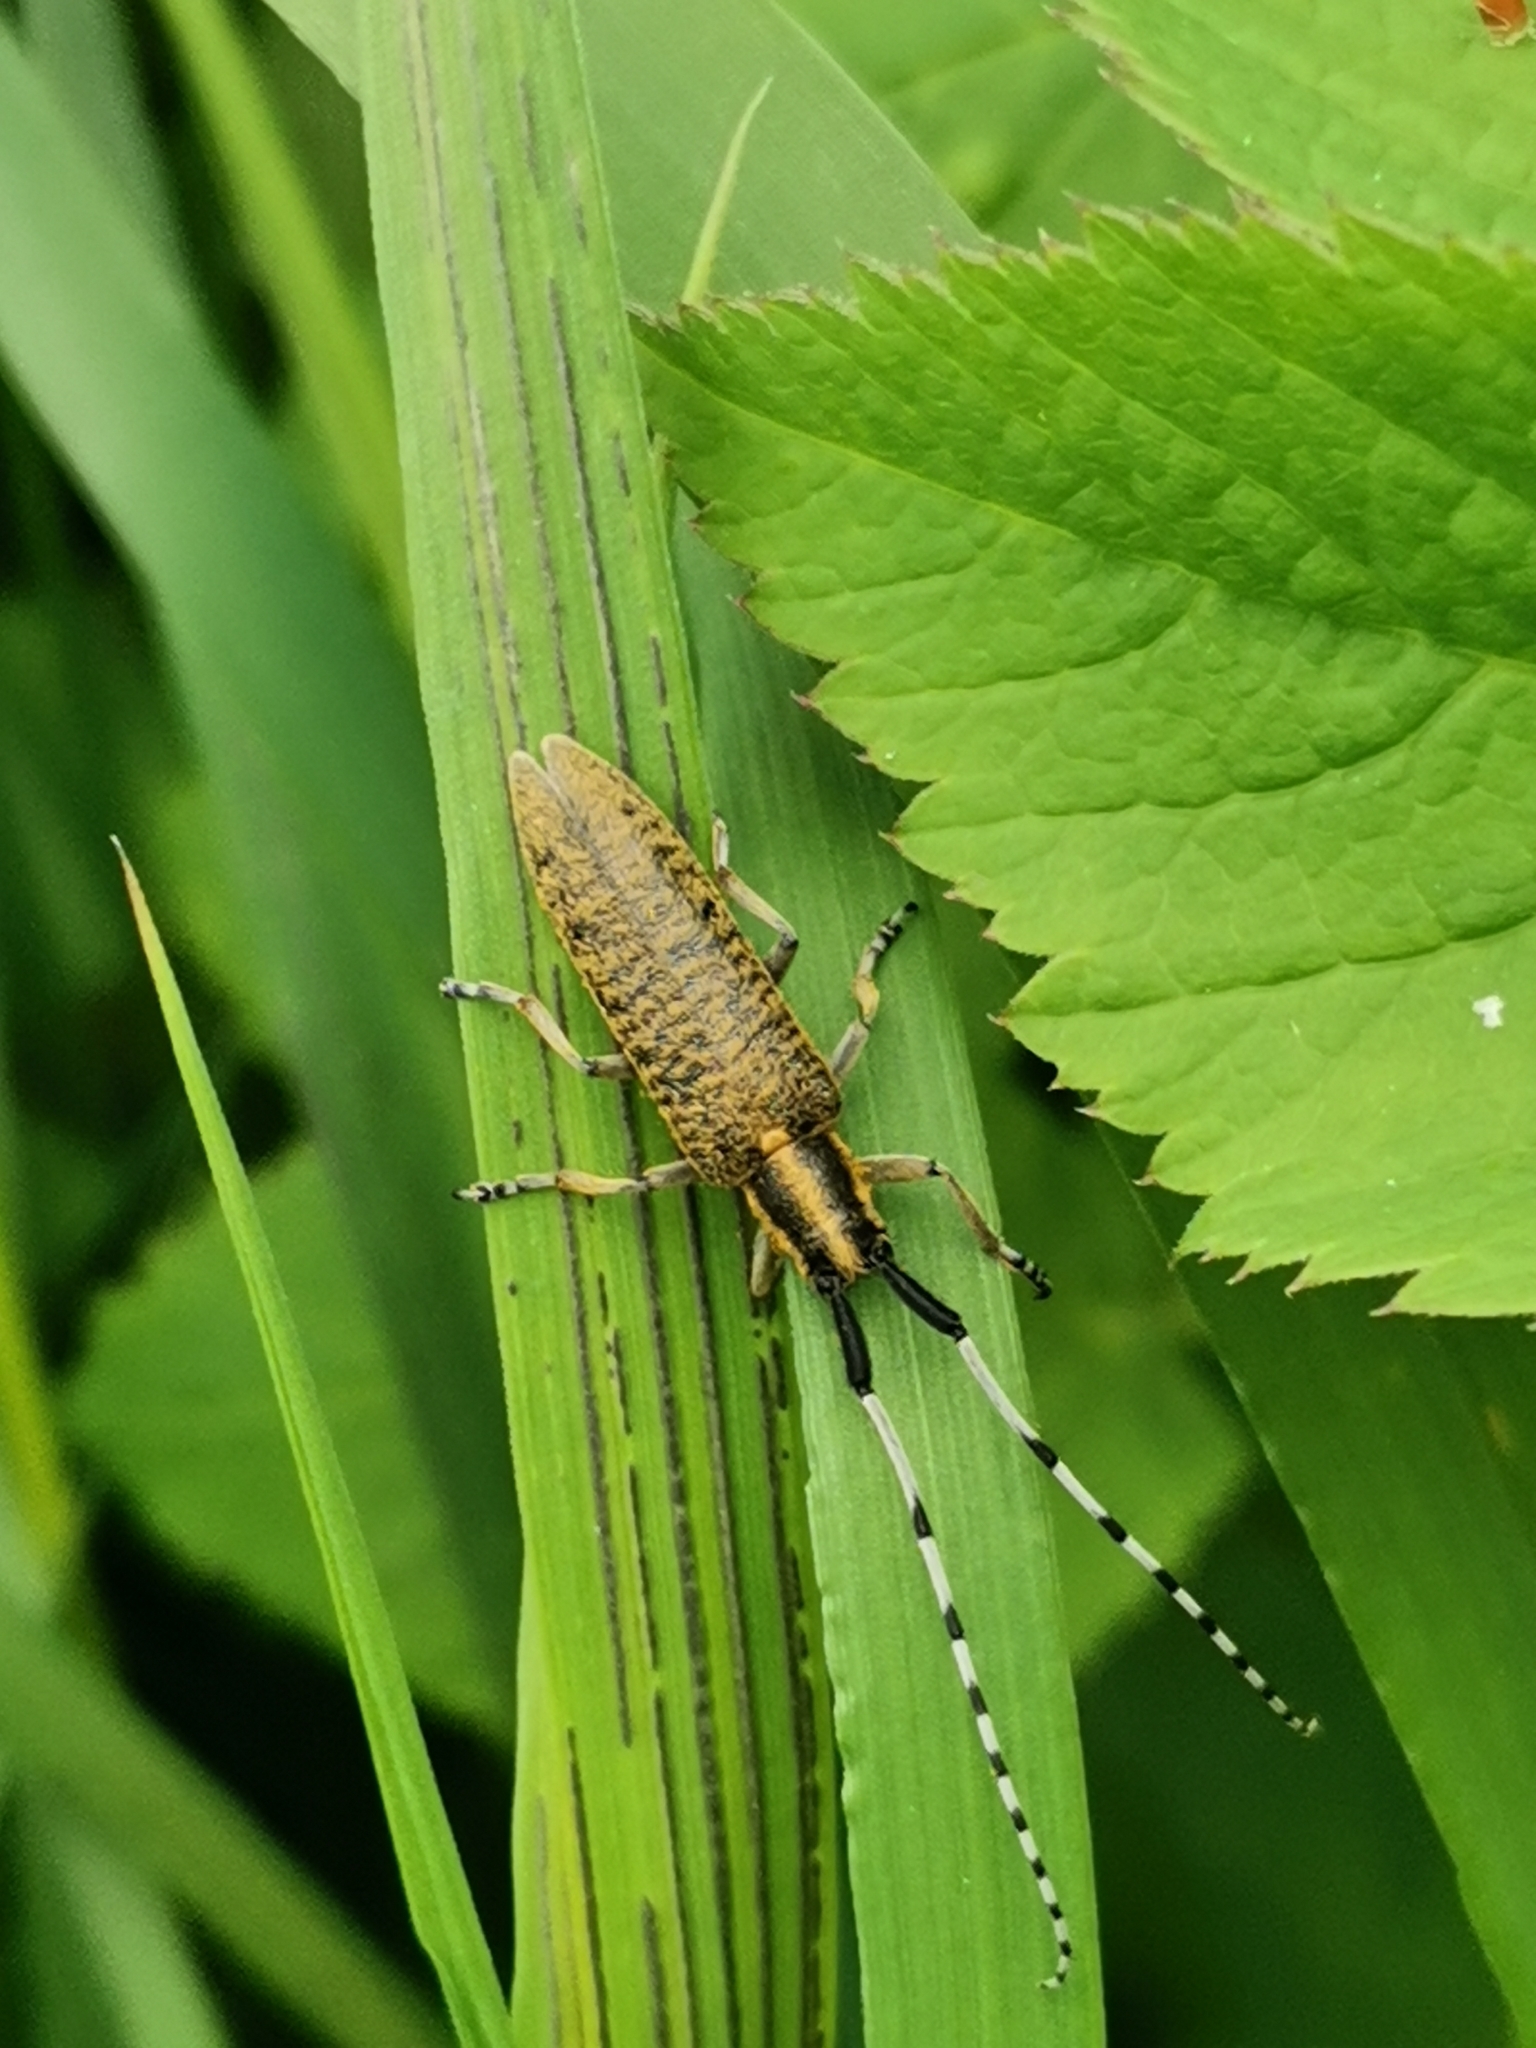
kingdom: Animalia
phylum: Arthropoda
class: Insecta
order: Coleoptera
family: Cerambycidae
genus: Agapanthia
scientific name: Agapanthia villosoviridescens
